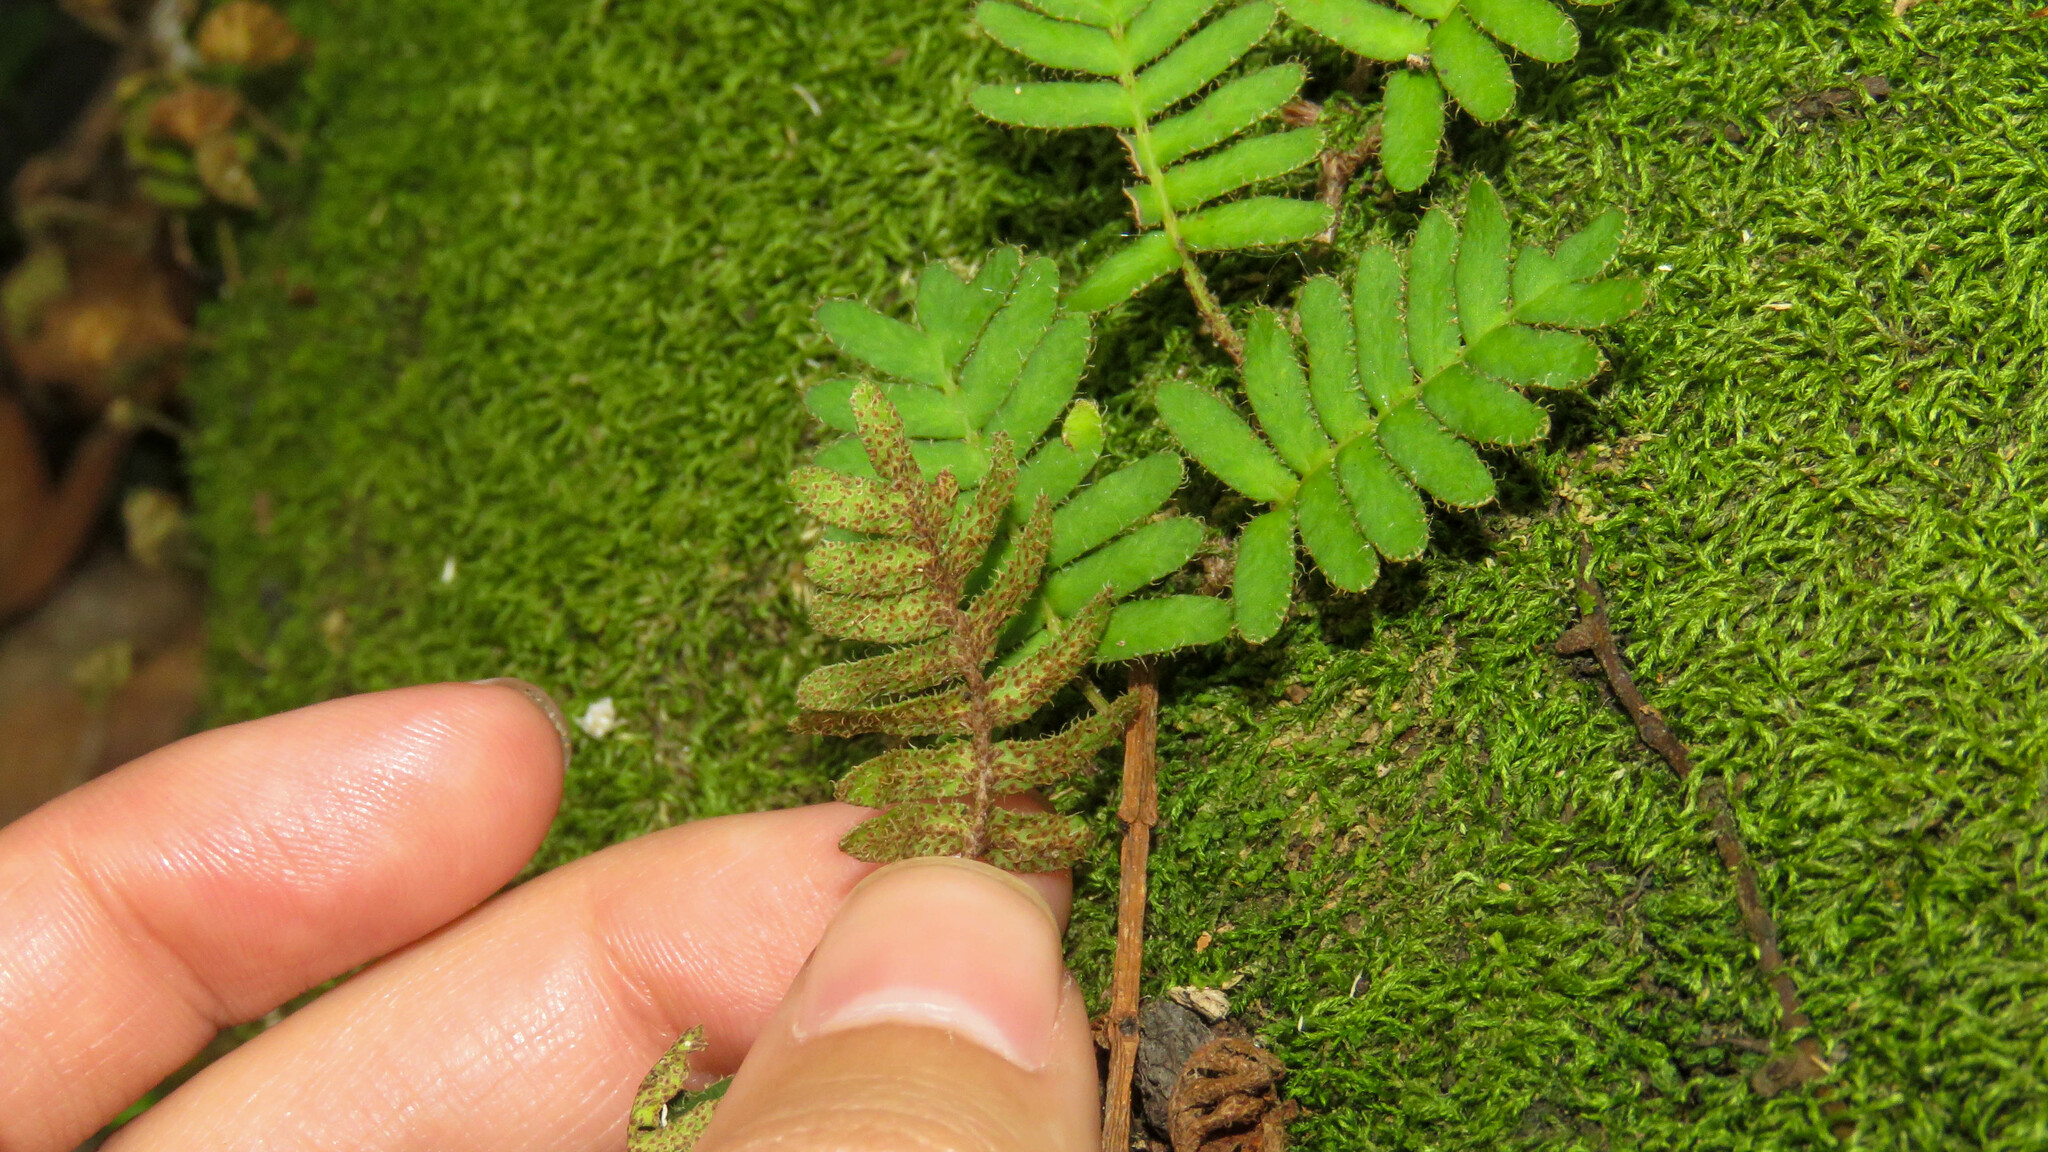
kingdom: Plantae
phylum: Tracheophyta
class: Polypodiopsida
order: Polypodiales
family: Polypodiaceae
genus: Pleopeltis
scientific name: Pleopeltis minima
